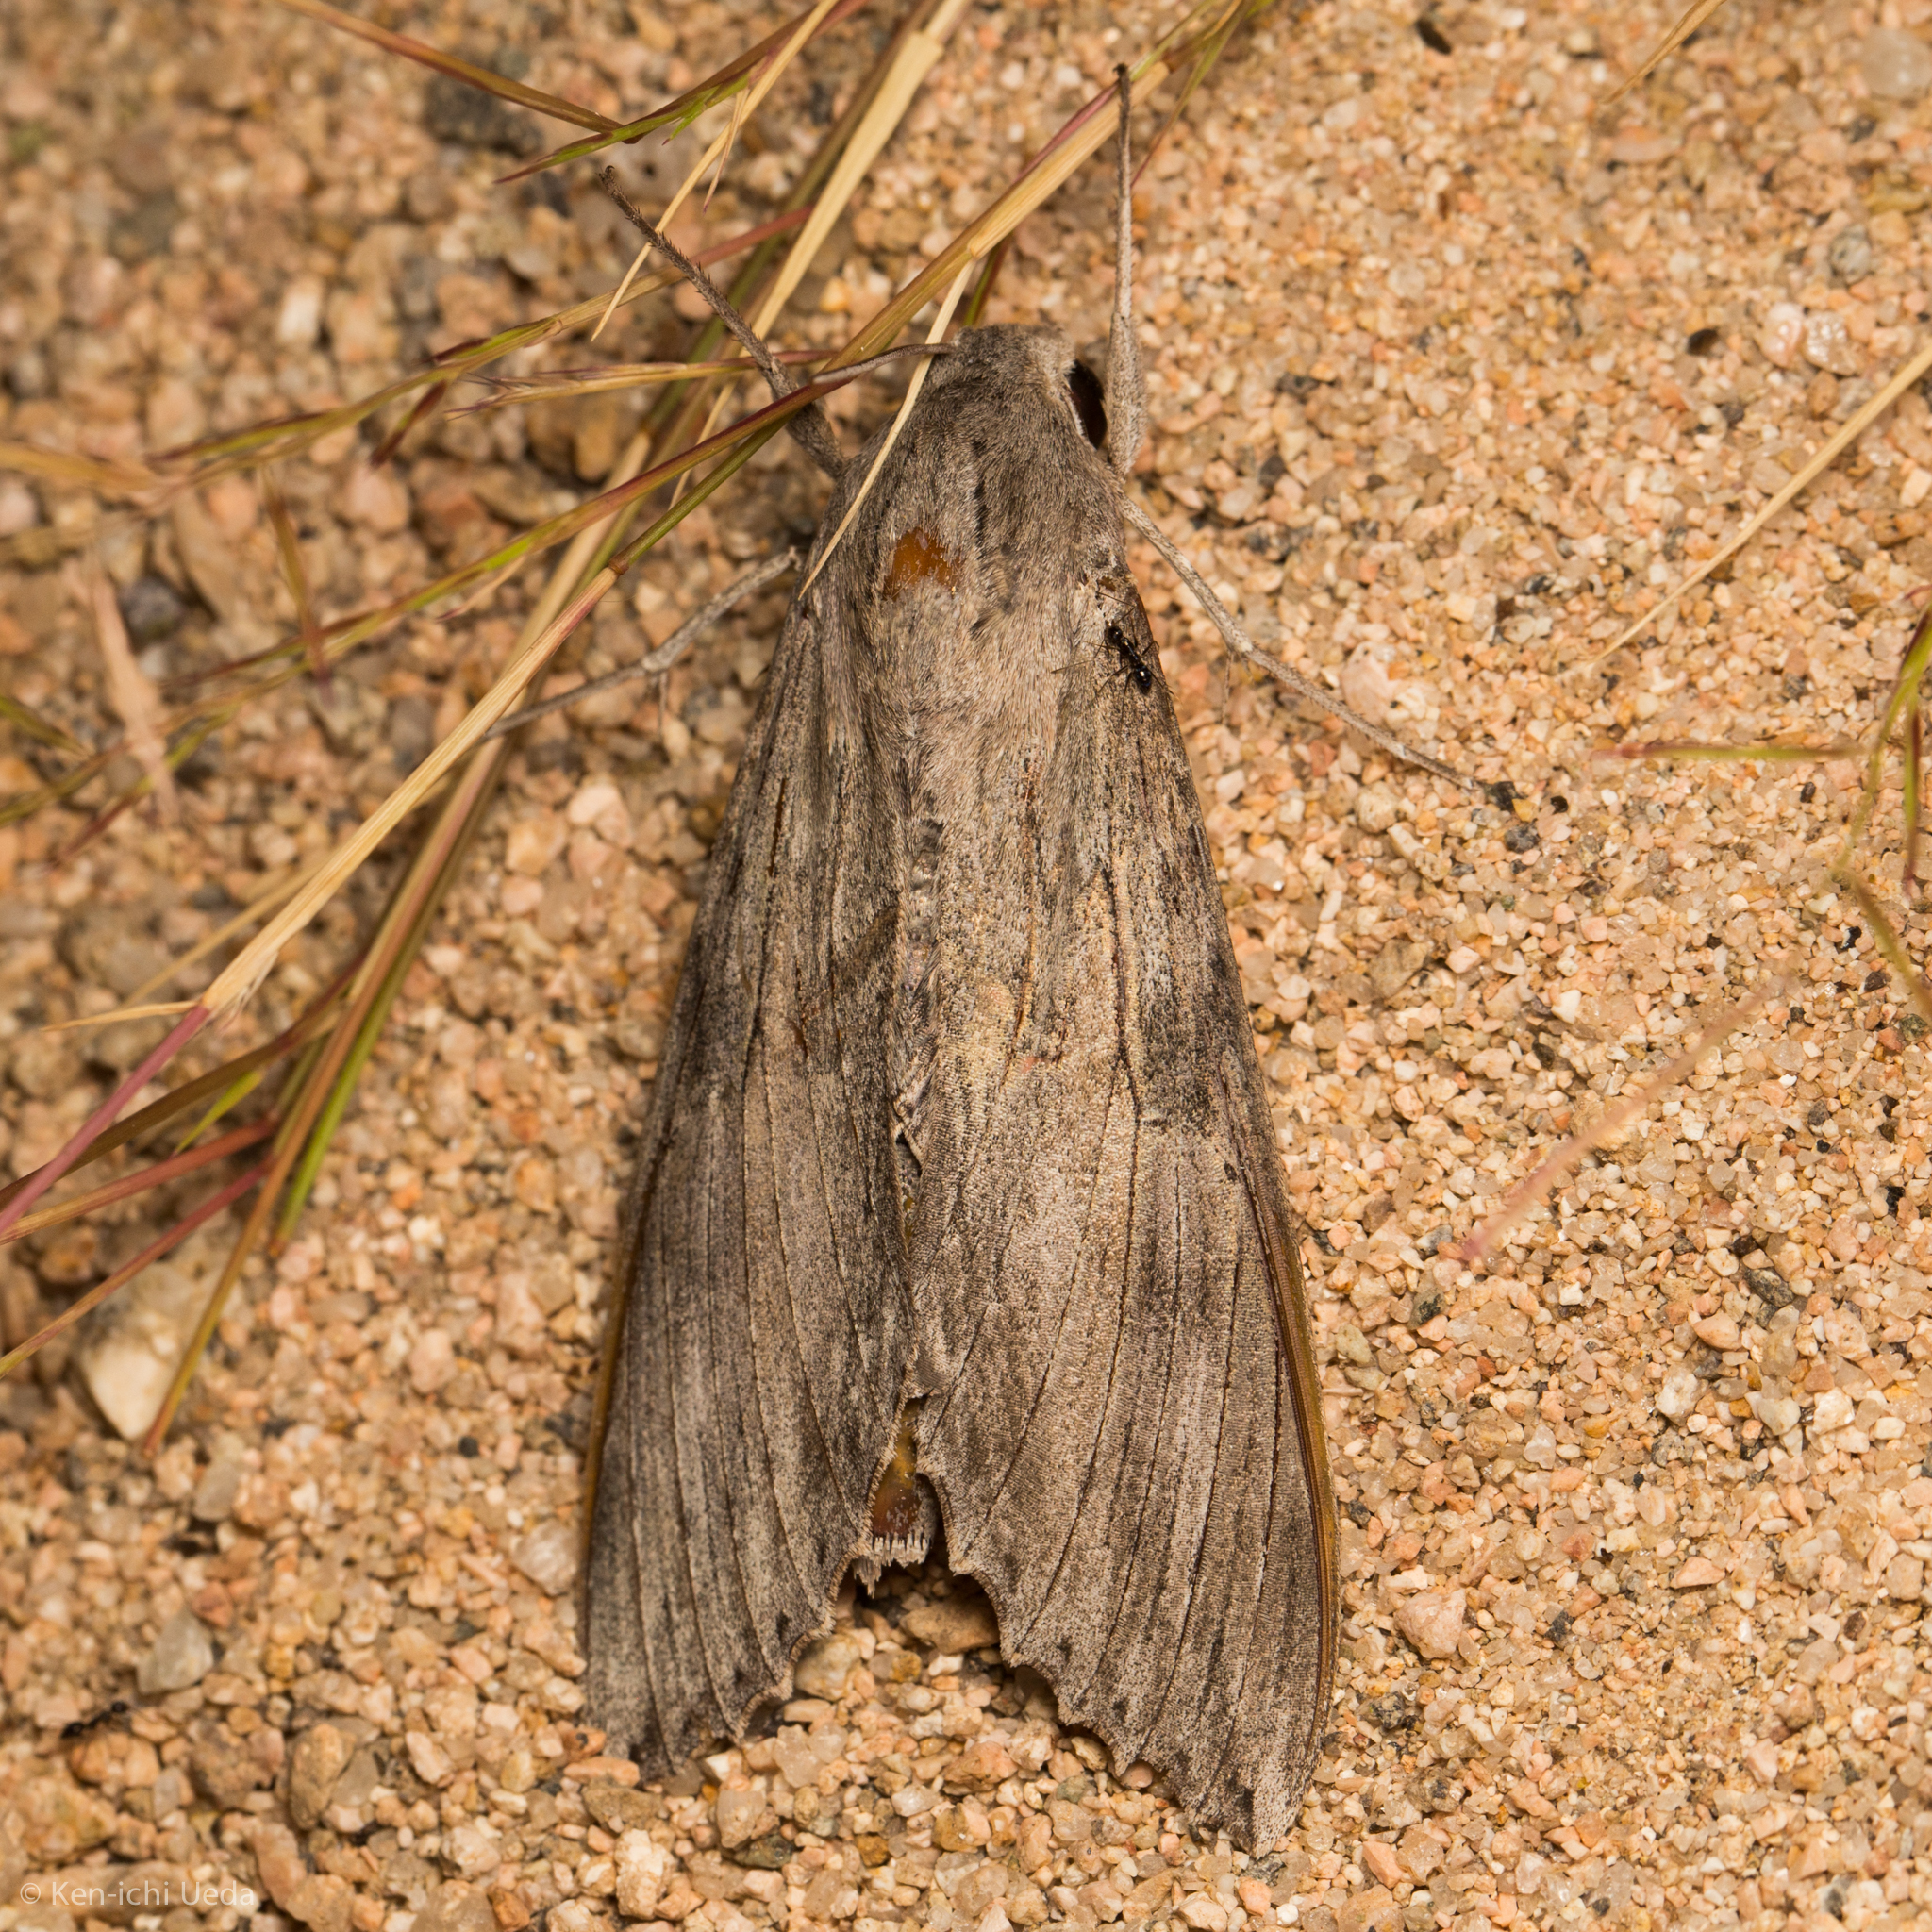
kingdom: Animalia
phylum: Arthropoda
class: Insecta
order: Lepidoptera
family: Sphingidae
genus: Erinnyis
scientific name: Erinnyis ello
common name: Ello sphinx
